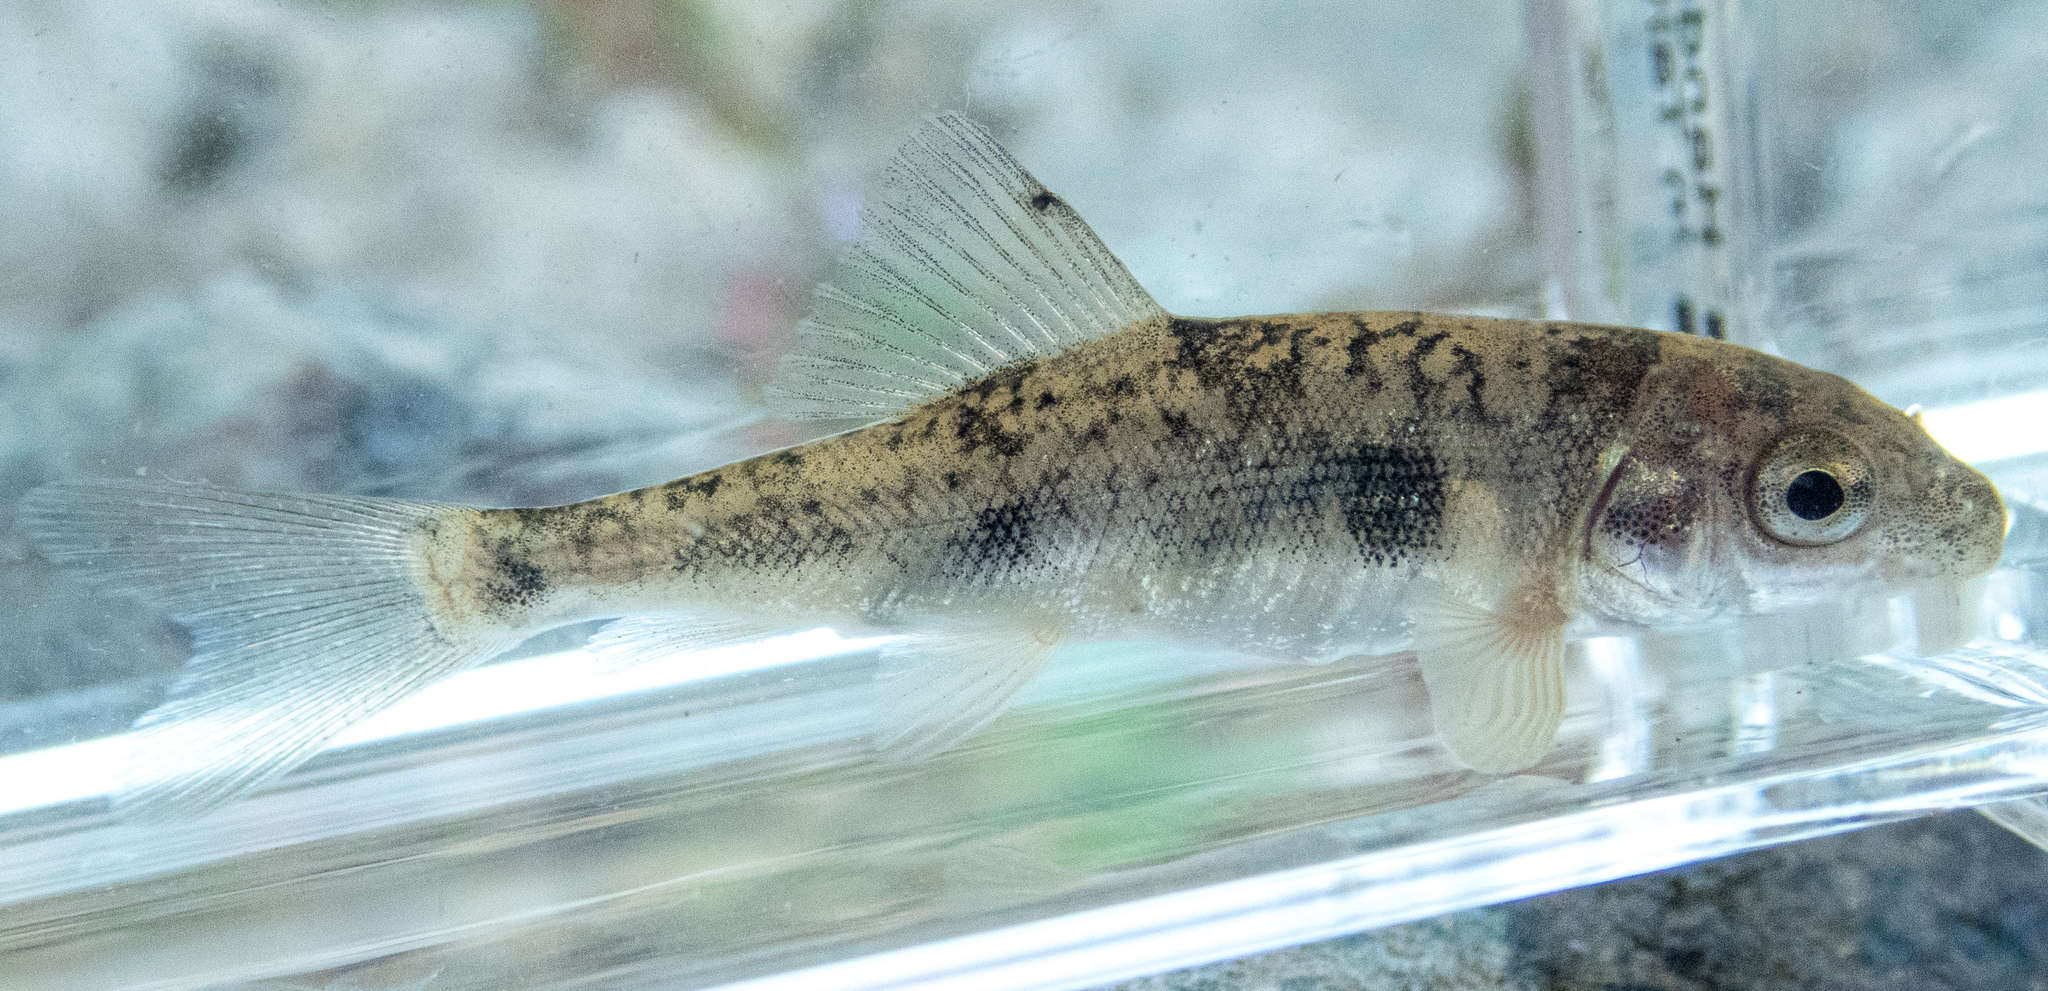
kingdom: Animalia
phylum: Chordata
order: Cypriniformes
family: Catostomidae
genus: Catostomus
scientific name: Catostomus occidentalis
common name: Goose lake sucker
